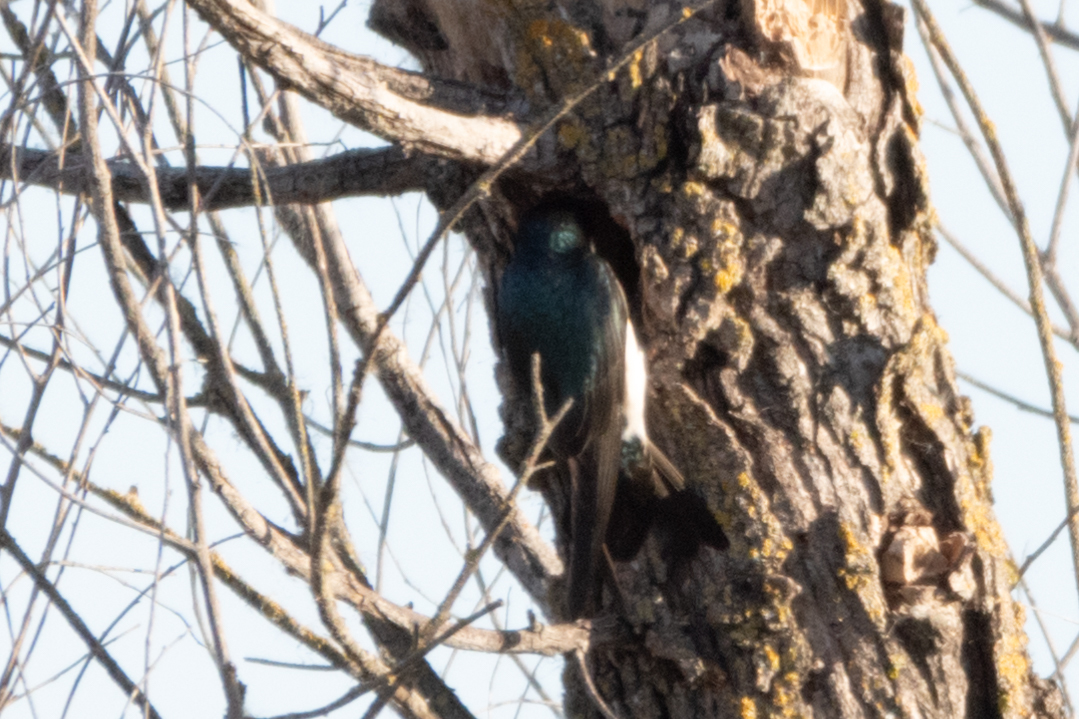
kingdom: Animalia
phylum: Chordata
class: Aves
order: Passeriformes
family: Hirundinidae
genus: Tachycineta
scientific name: Tachycineta bicolor
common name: Tree swallow
